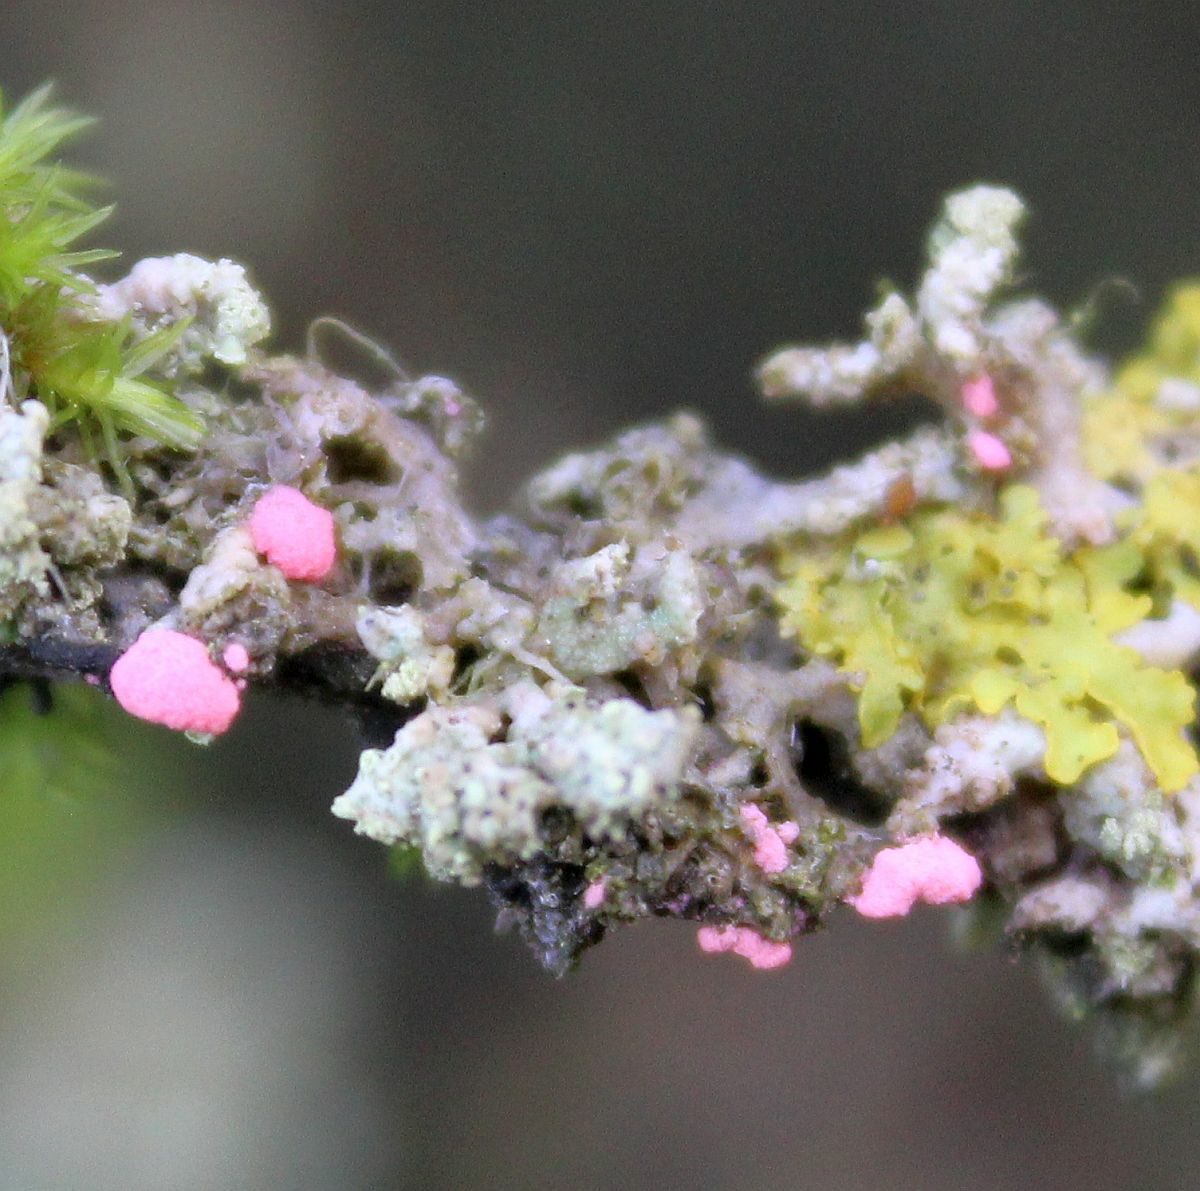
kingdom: Fungi
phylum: Ascomycota
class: Sordariomycetes
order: Hypocreales
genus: Illosporiopsis
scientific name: Illosporiopsis christiansenii
